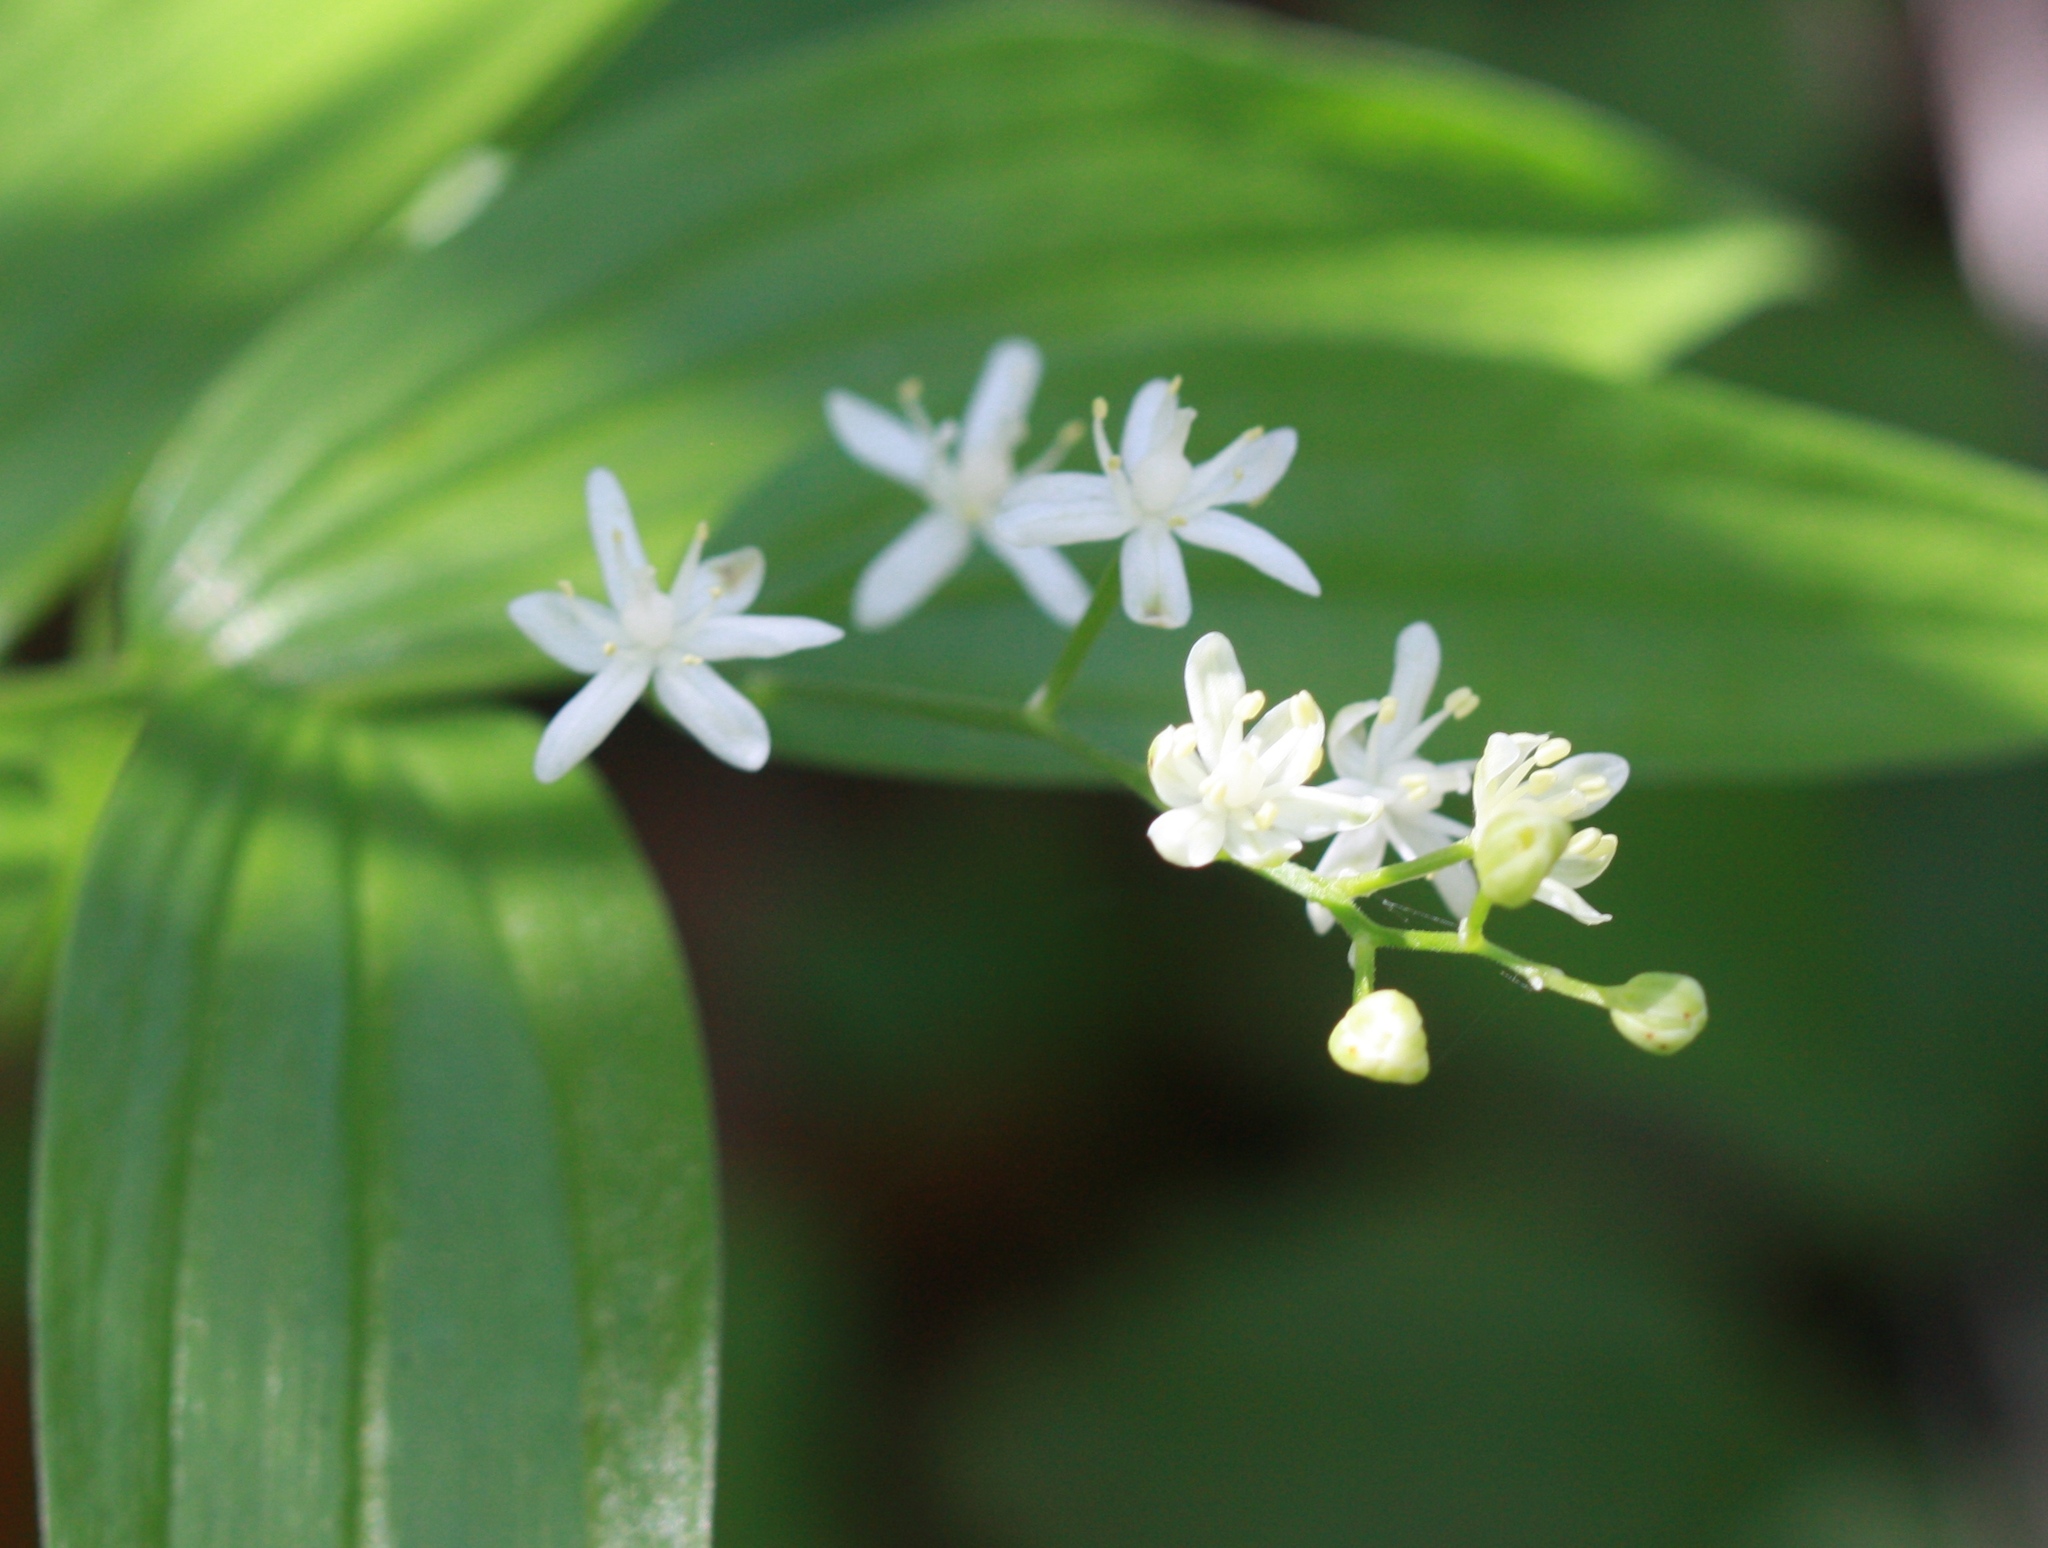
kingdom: Plantae
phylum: Tracheophyta
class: Liliopsida
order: Asparagales
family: Asparagaceae
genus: Maianthemum
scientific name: Maianthemum stellatum
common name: Little false solomon's seal
